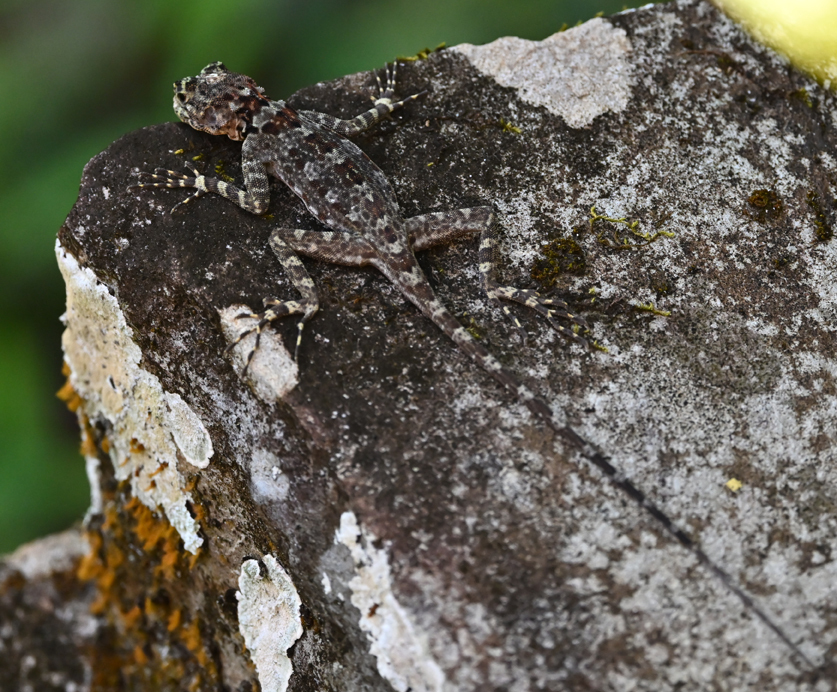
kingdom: Animalia
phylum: Chordata
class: Squamata
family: Tropiduridae
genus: Plica
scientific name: Plica caribeana
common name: Caribbean treerunner
